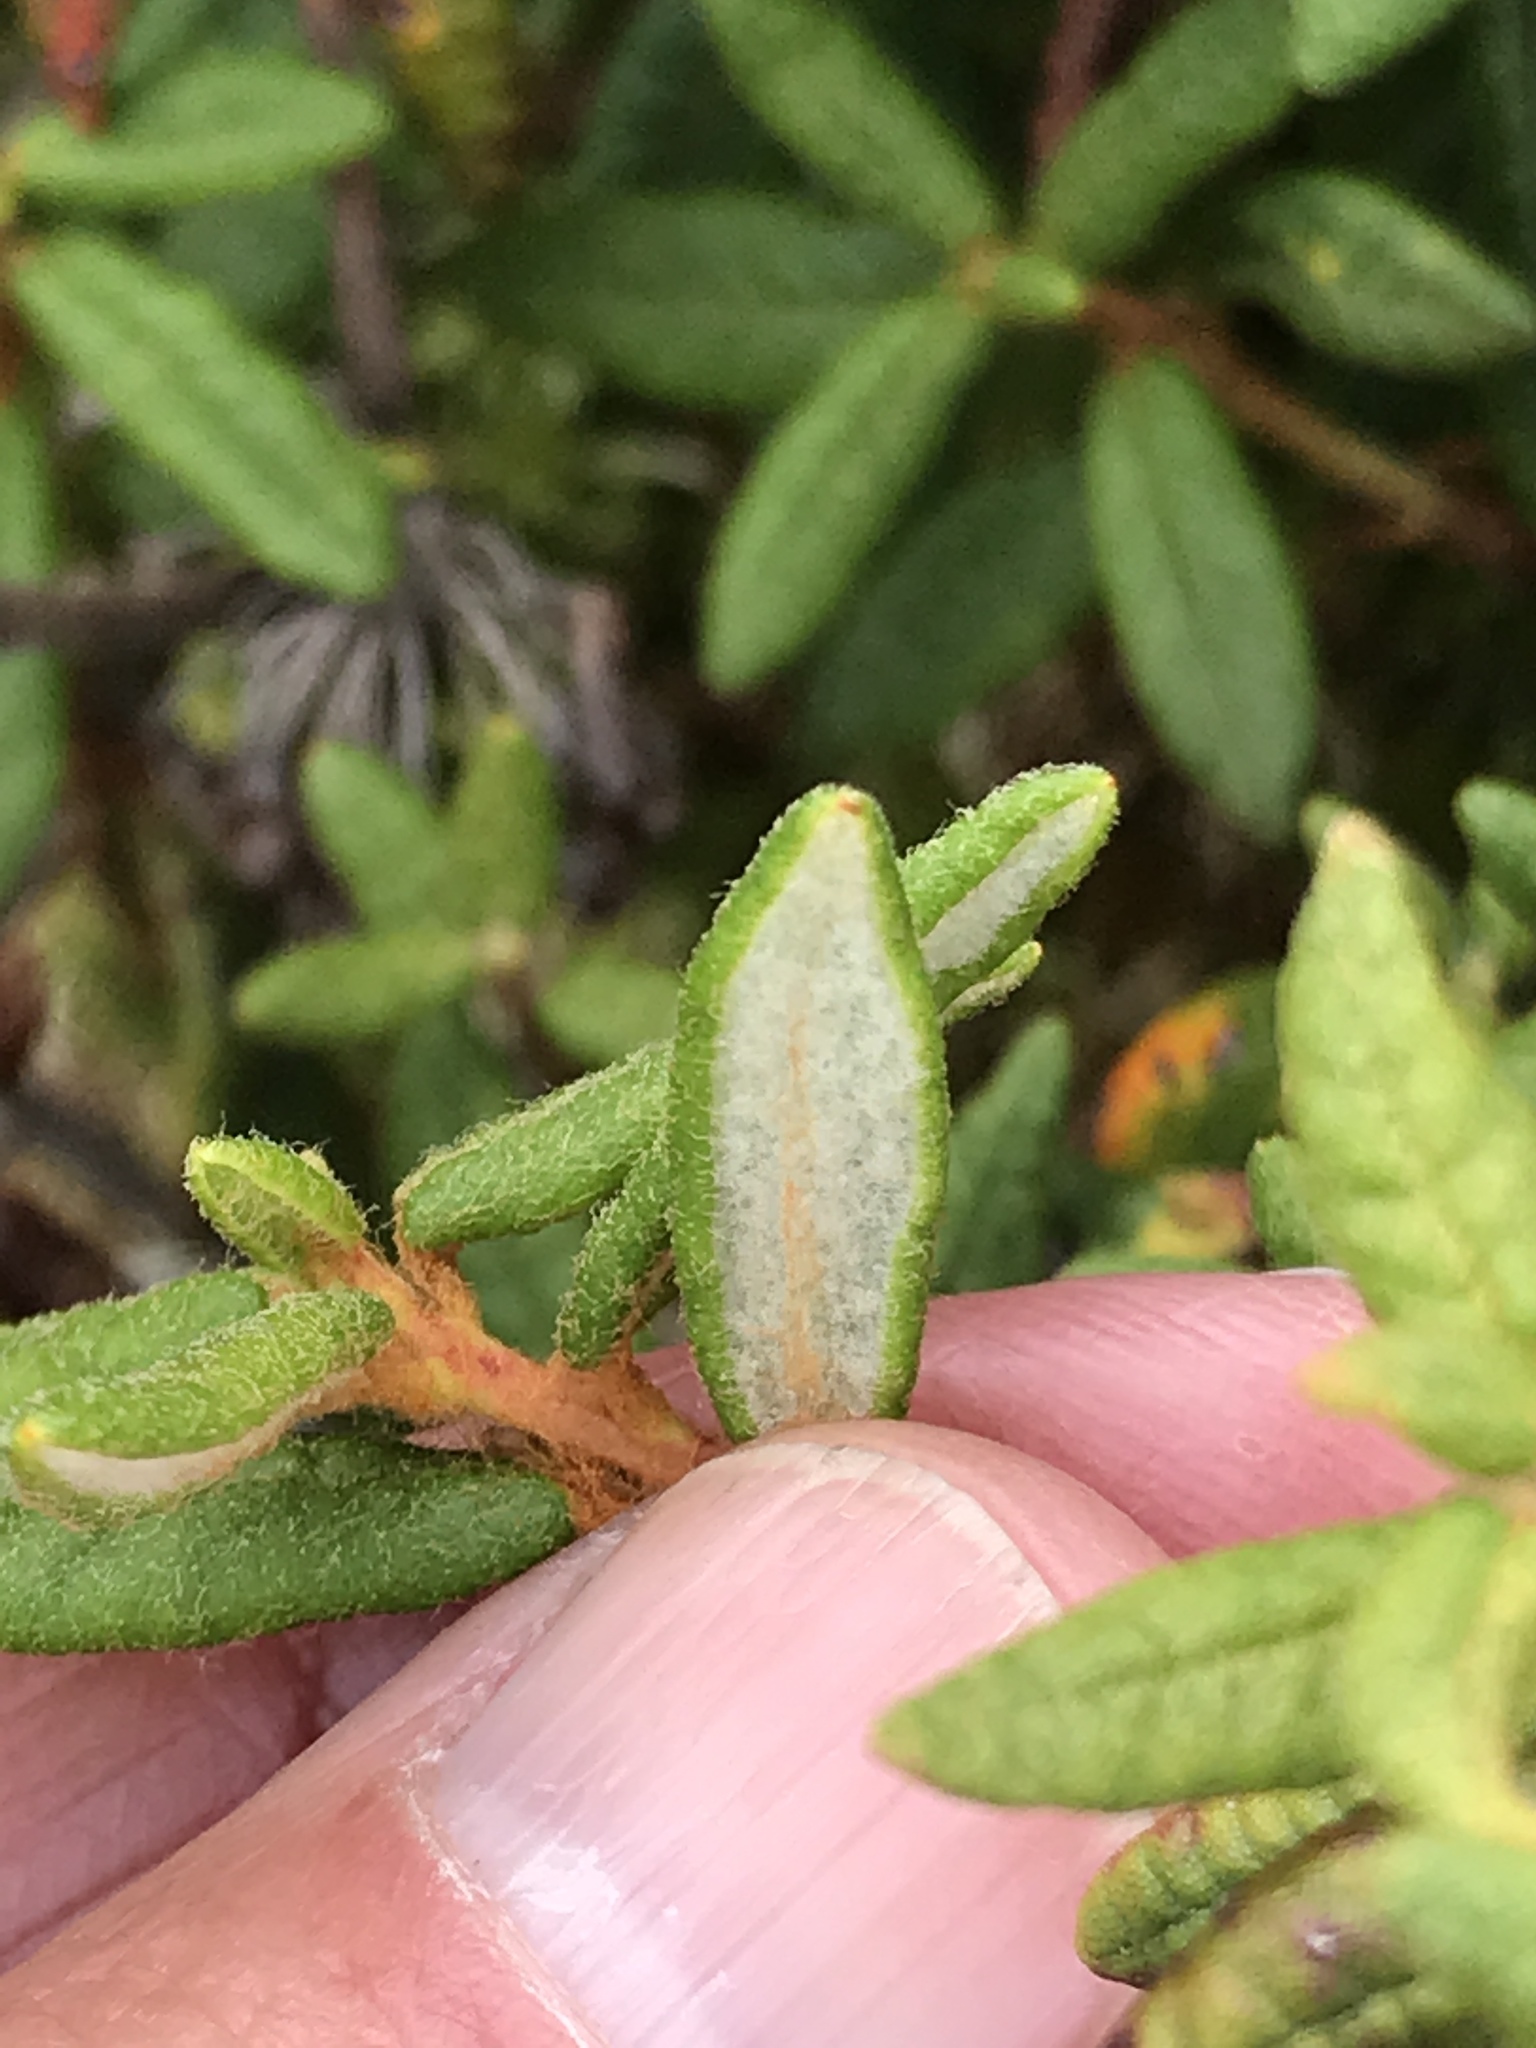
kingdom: Plantae
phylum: Tracheophyta
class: Magnoliopsida
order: Ericales
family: Ericaceae
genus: Rhododendron
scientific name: Rhododendron groenlandicum
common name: Bog labrador tea
